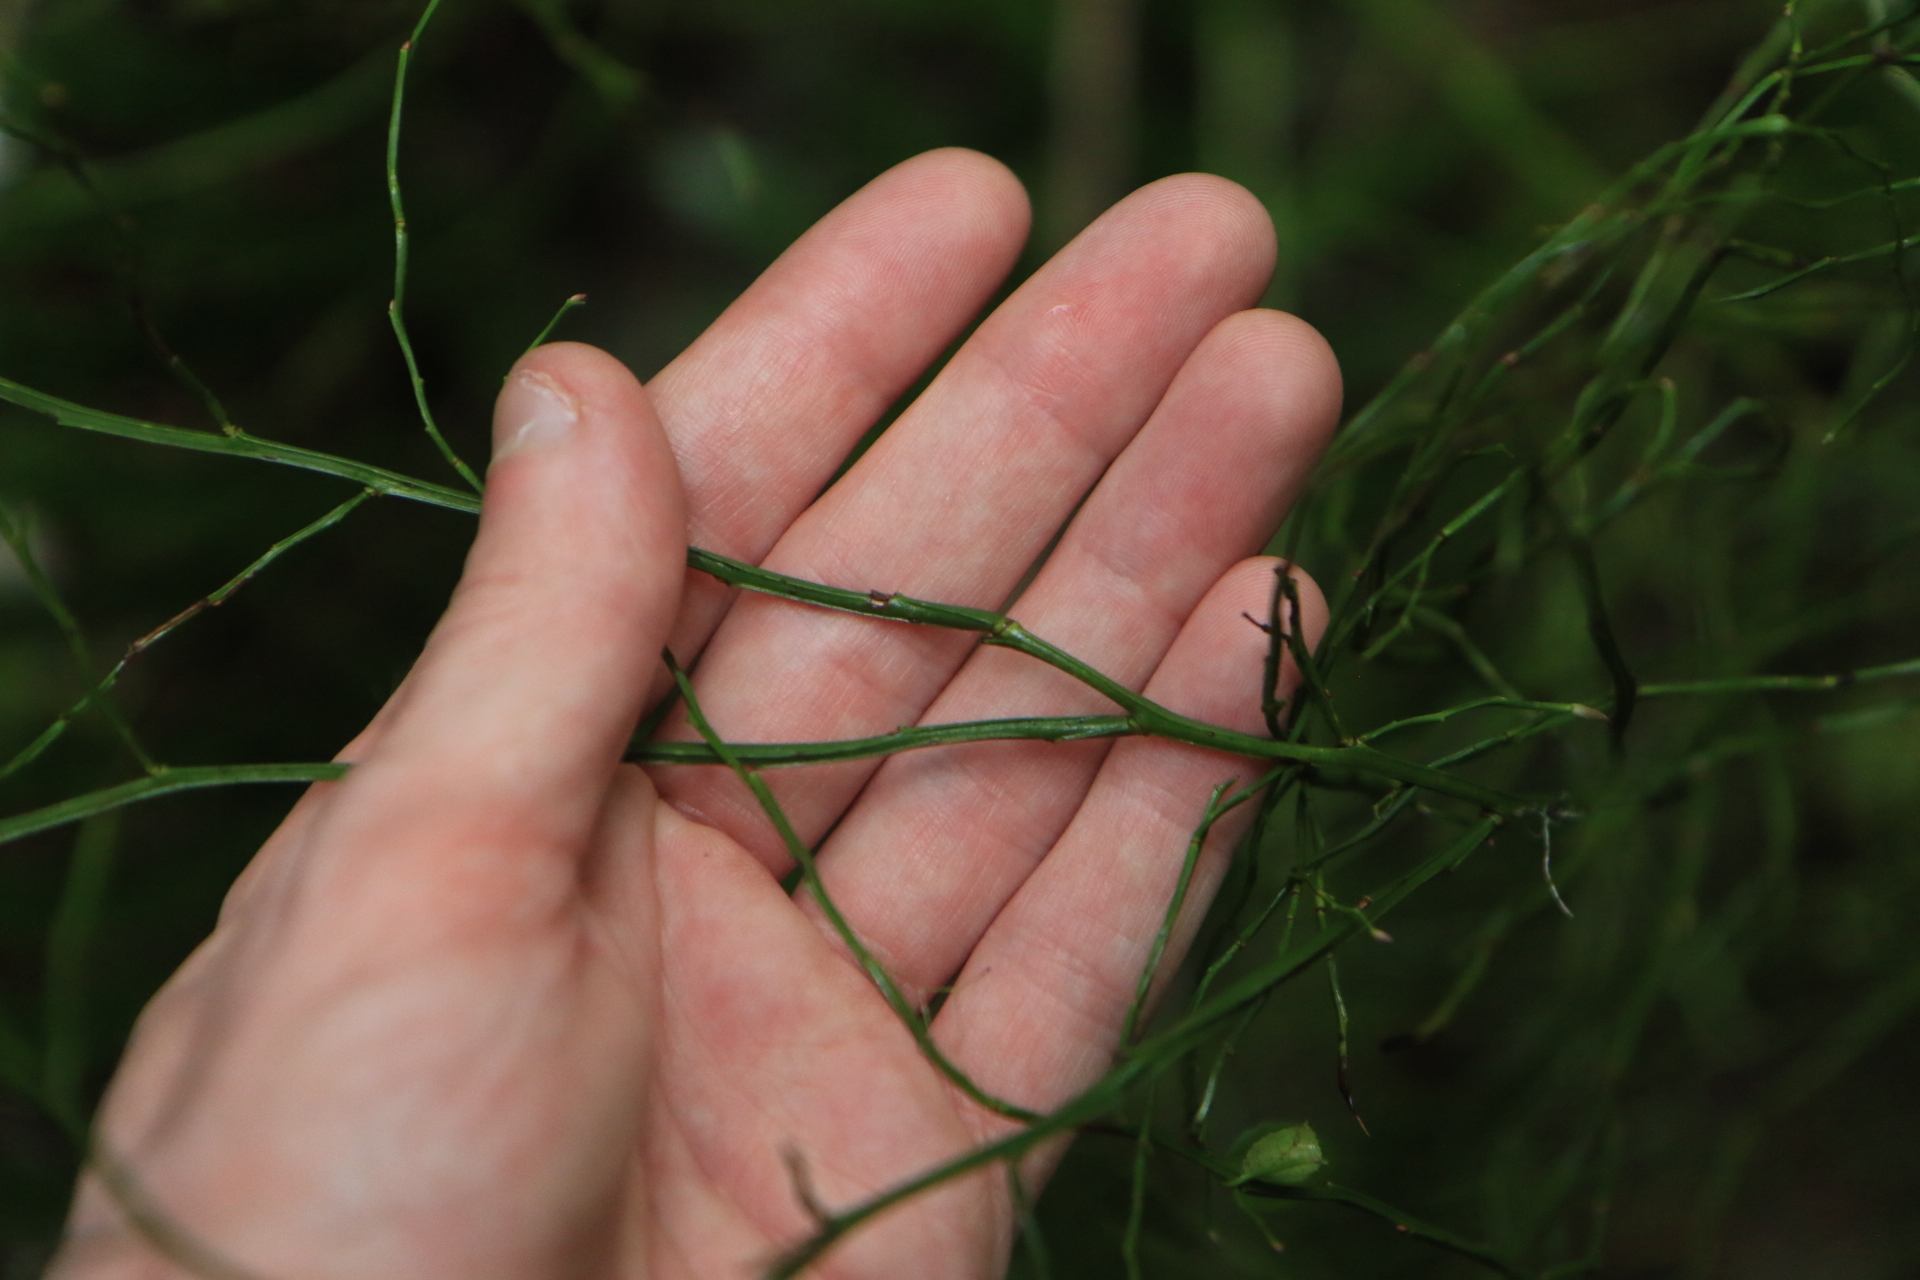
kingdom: Plantae
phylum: Tracheophyta
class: Magnoliopsida
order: Ericales
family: Ericaceae
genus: Vaccinium
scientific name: Vaccinium parvifolium
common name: Red-huckleberry
